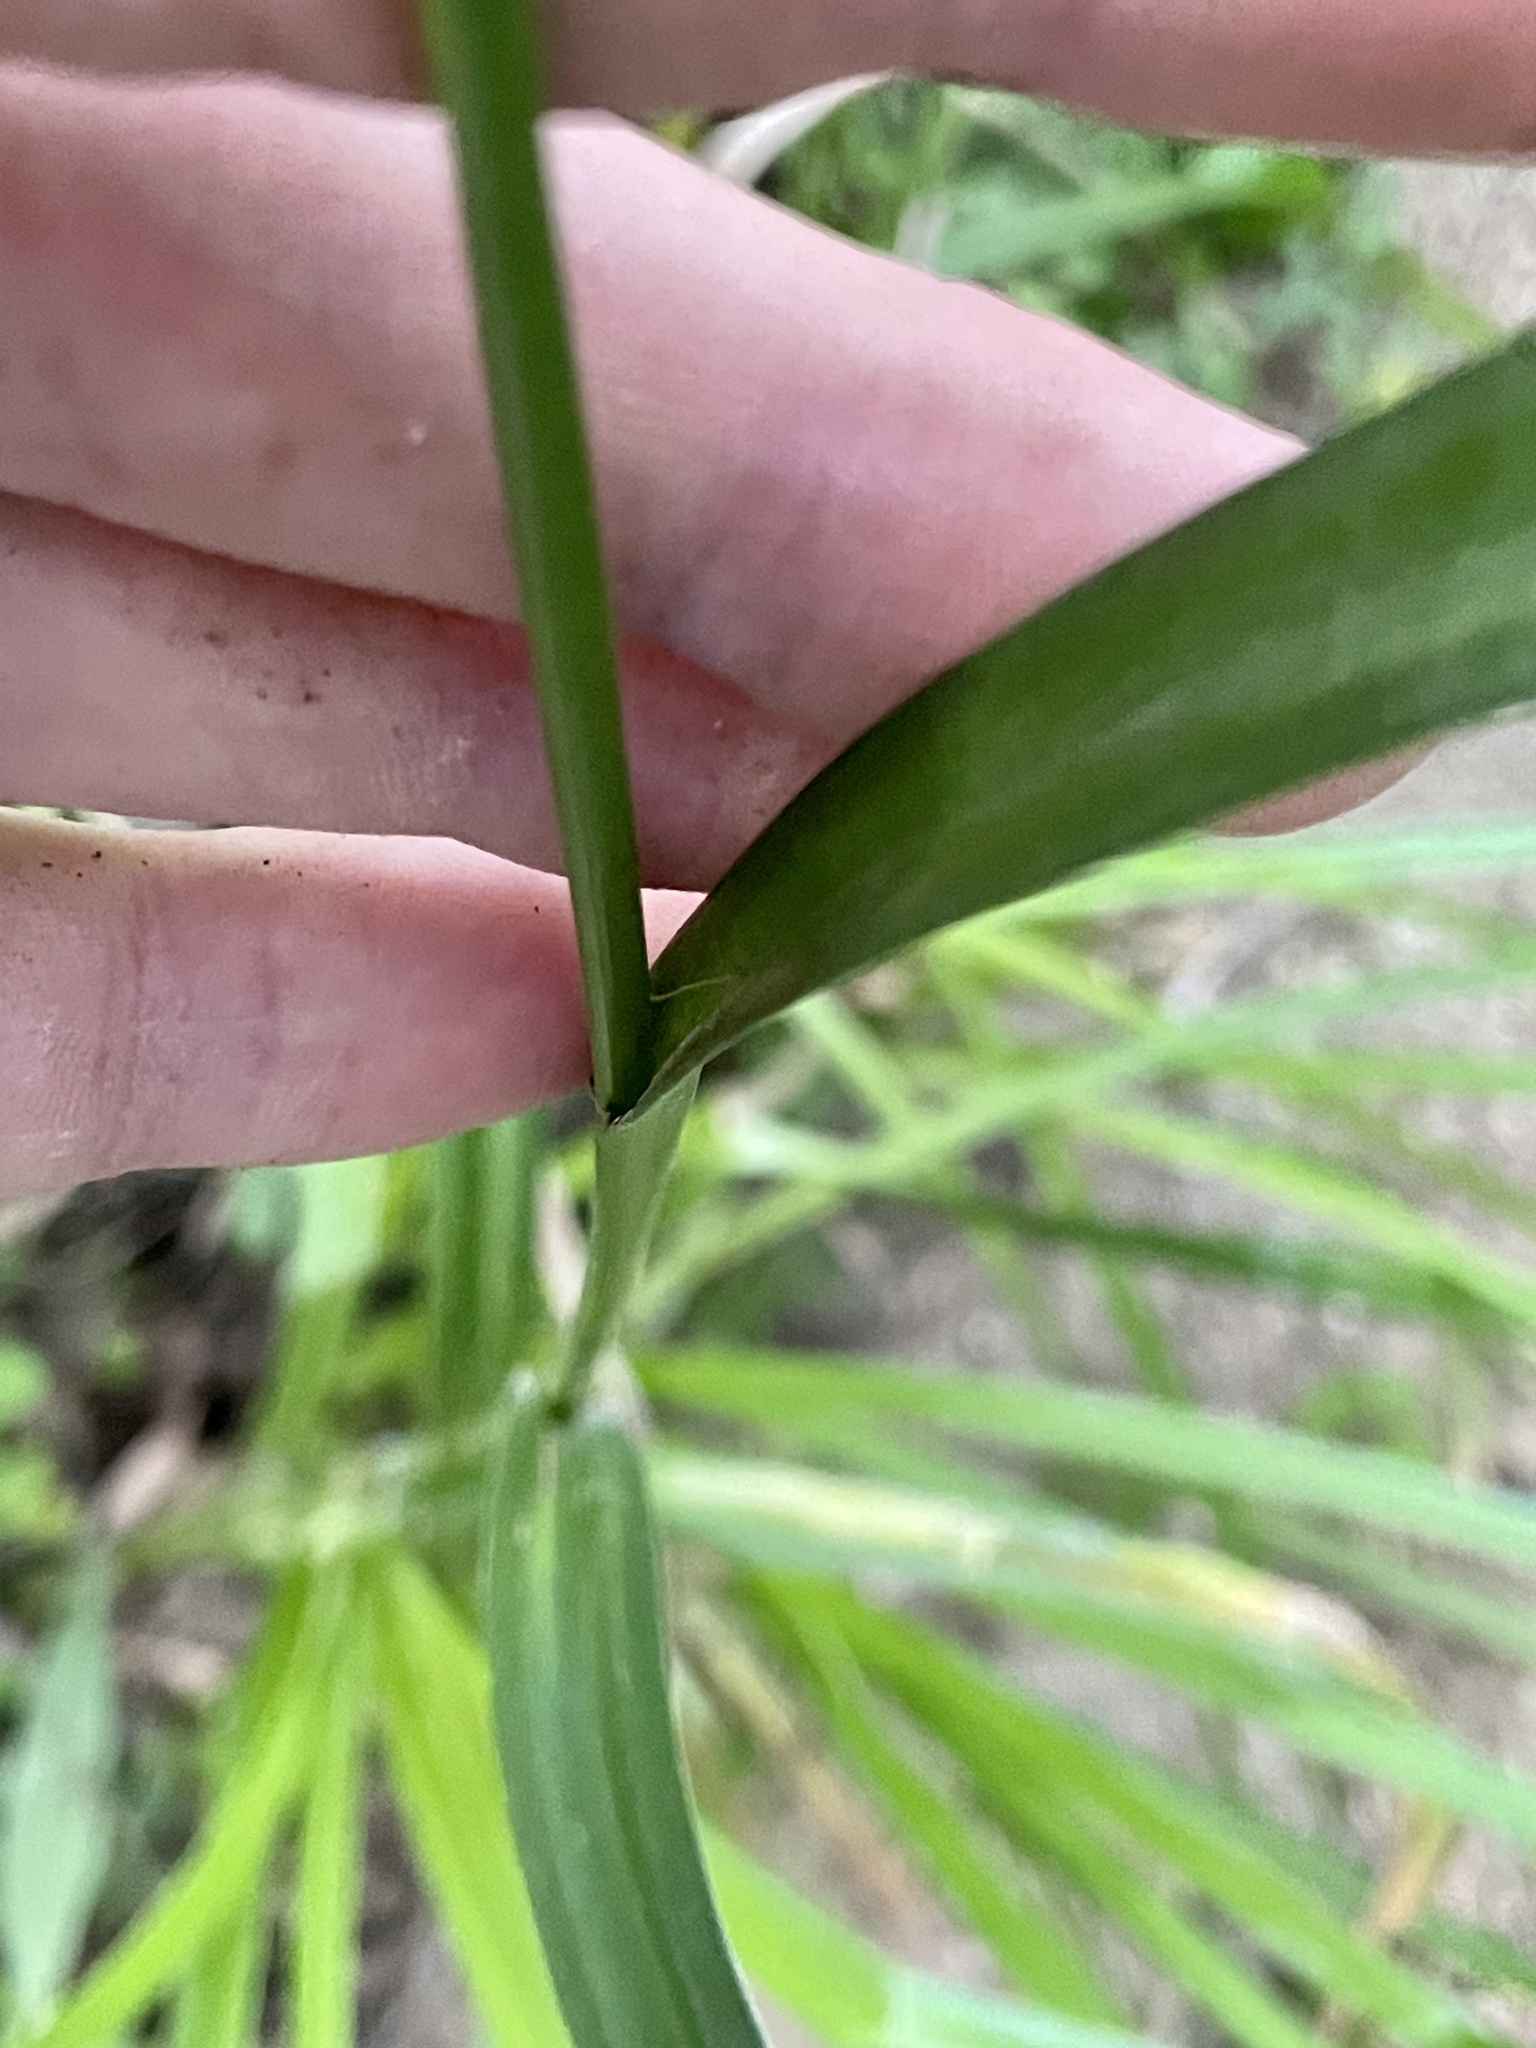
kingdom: Plantae
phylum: Tracheophyta
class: Liliopsida
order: Poales
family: Cyperaceae
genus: Scirpus
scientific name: Scirpus atrovirens
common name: Black bulrush
